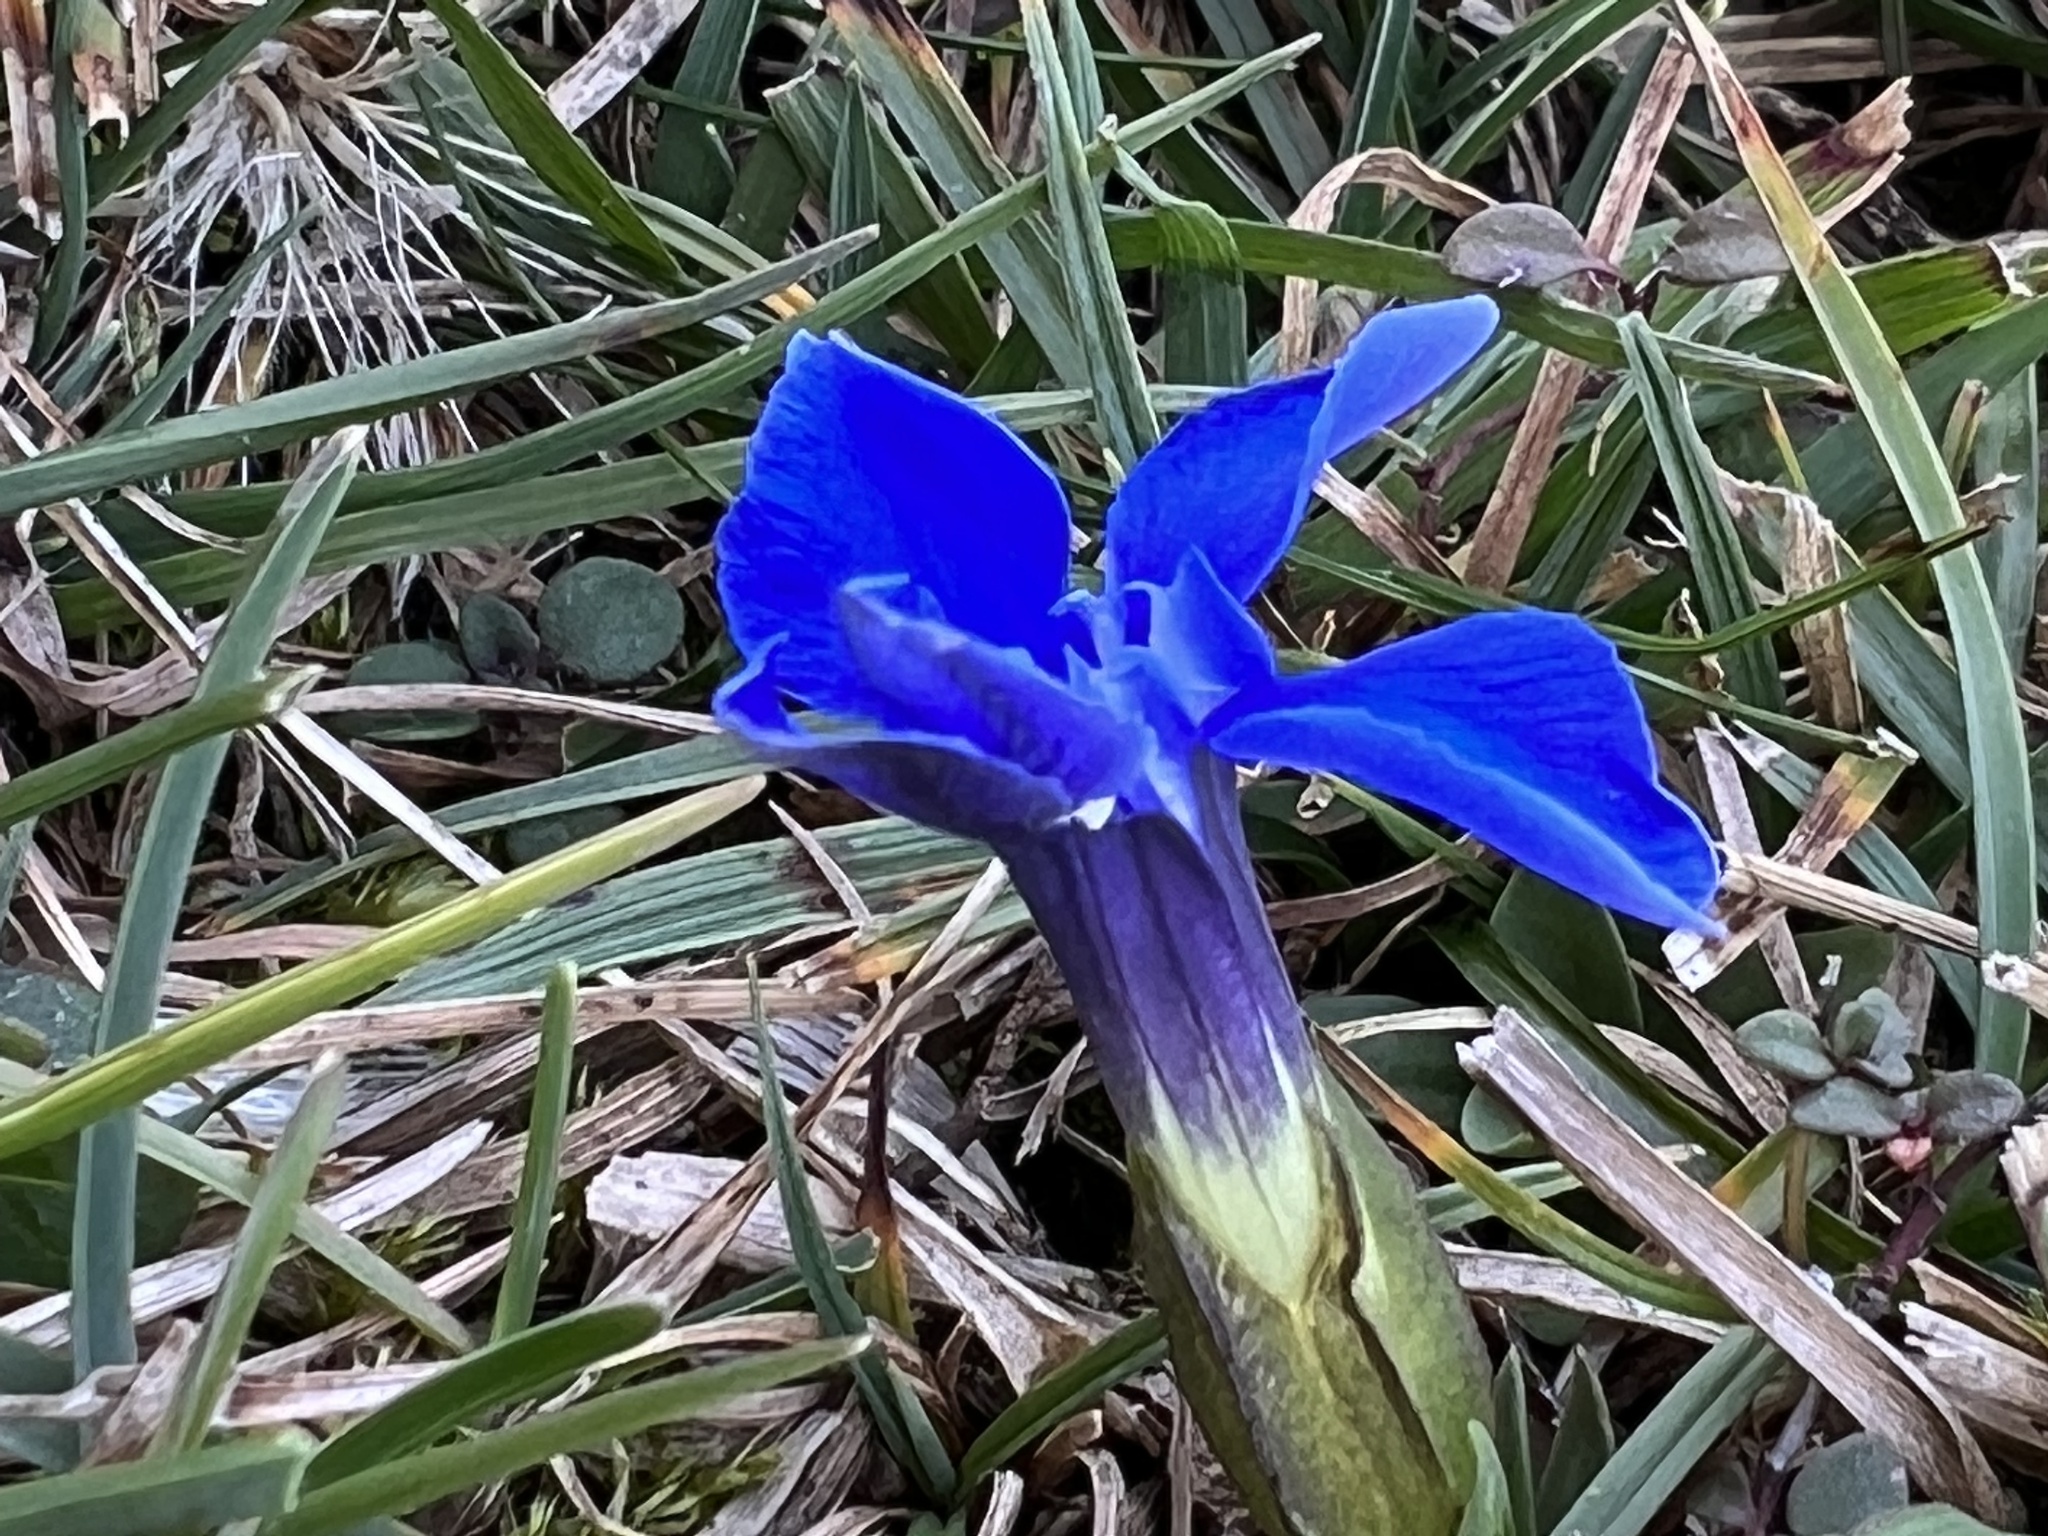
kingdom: Plantae
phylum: Tracheophyta
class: Magnoliopsida
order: Gentianales
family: Gentianaceae
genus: Gentiana
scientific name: Gentiana verna
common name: Spring gentian
